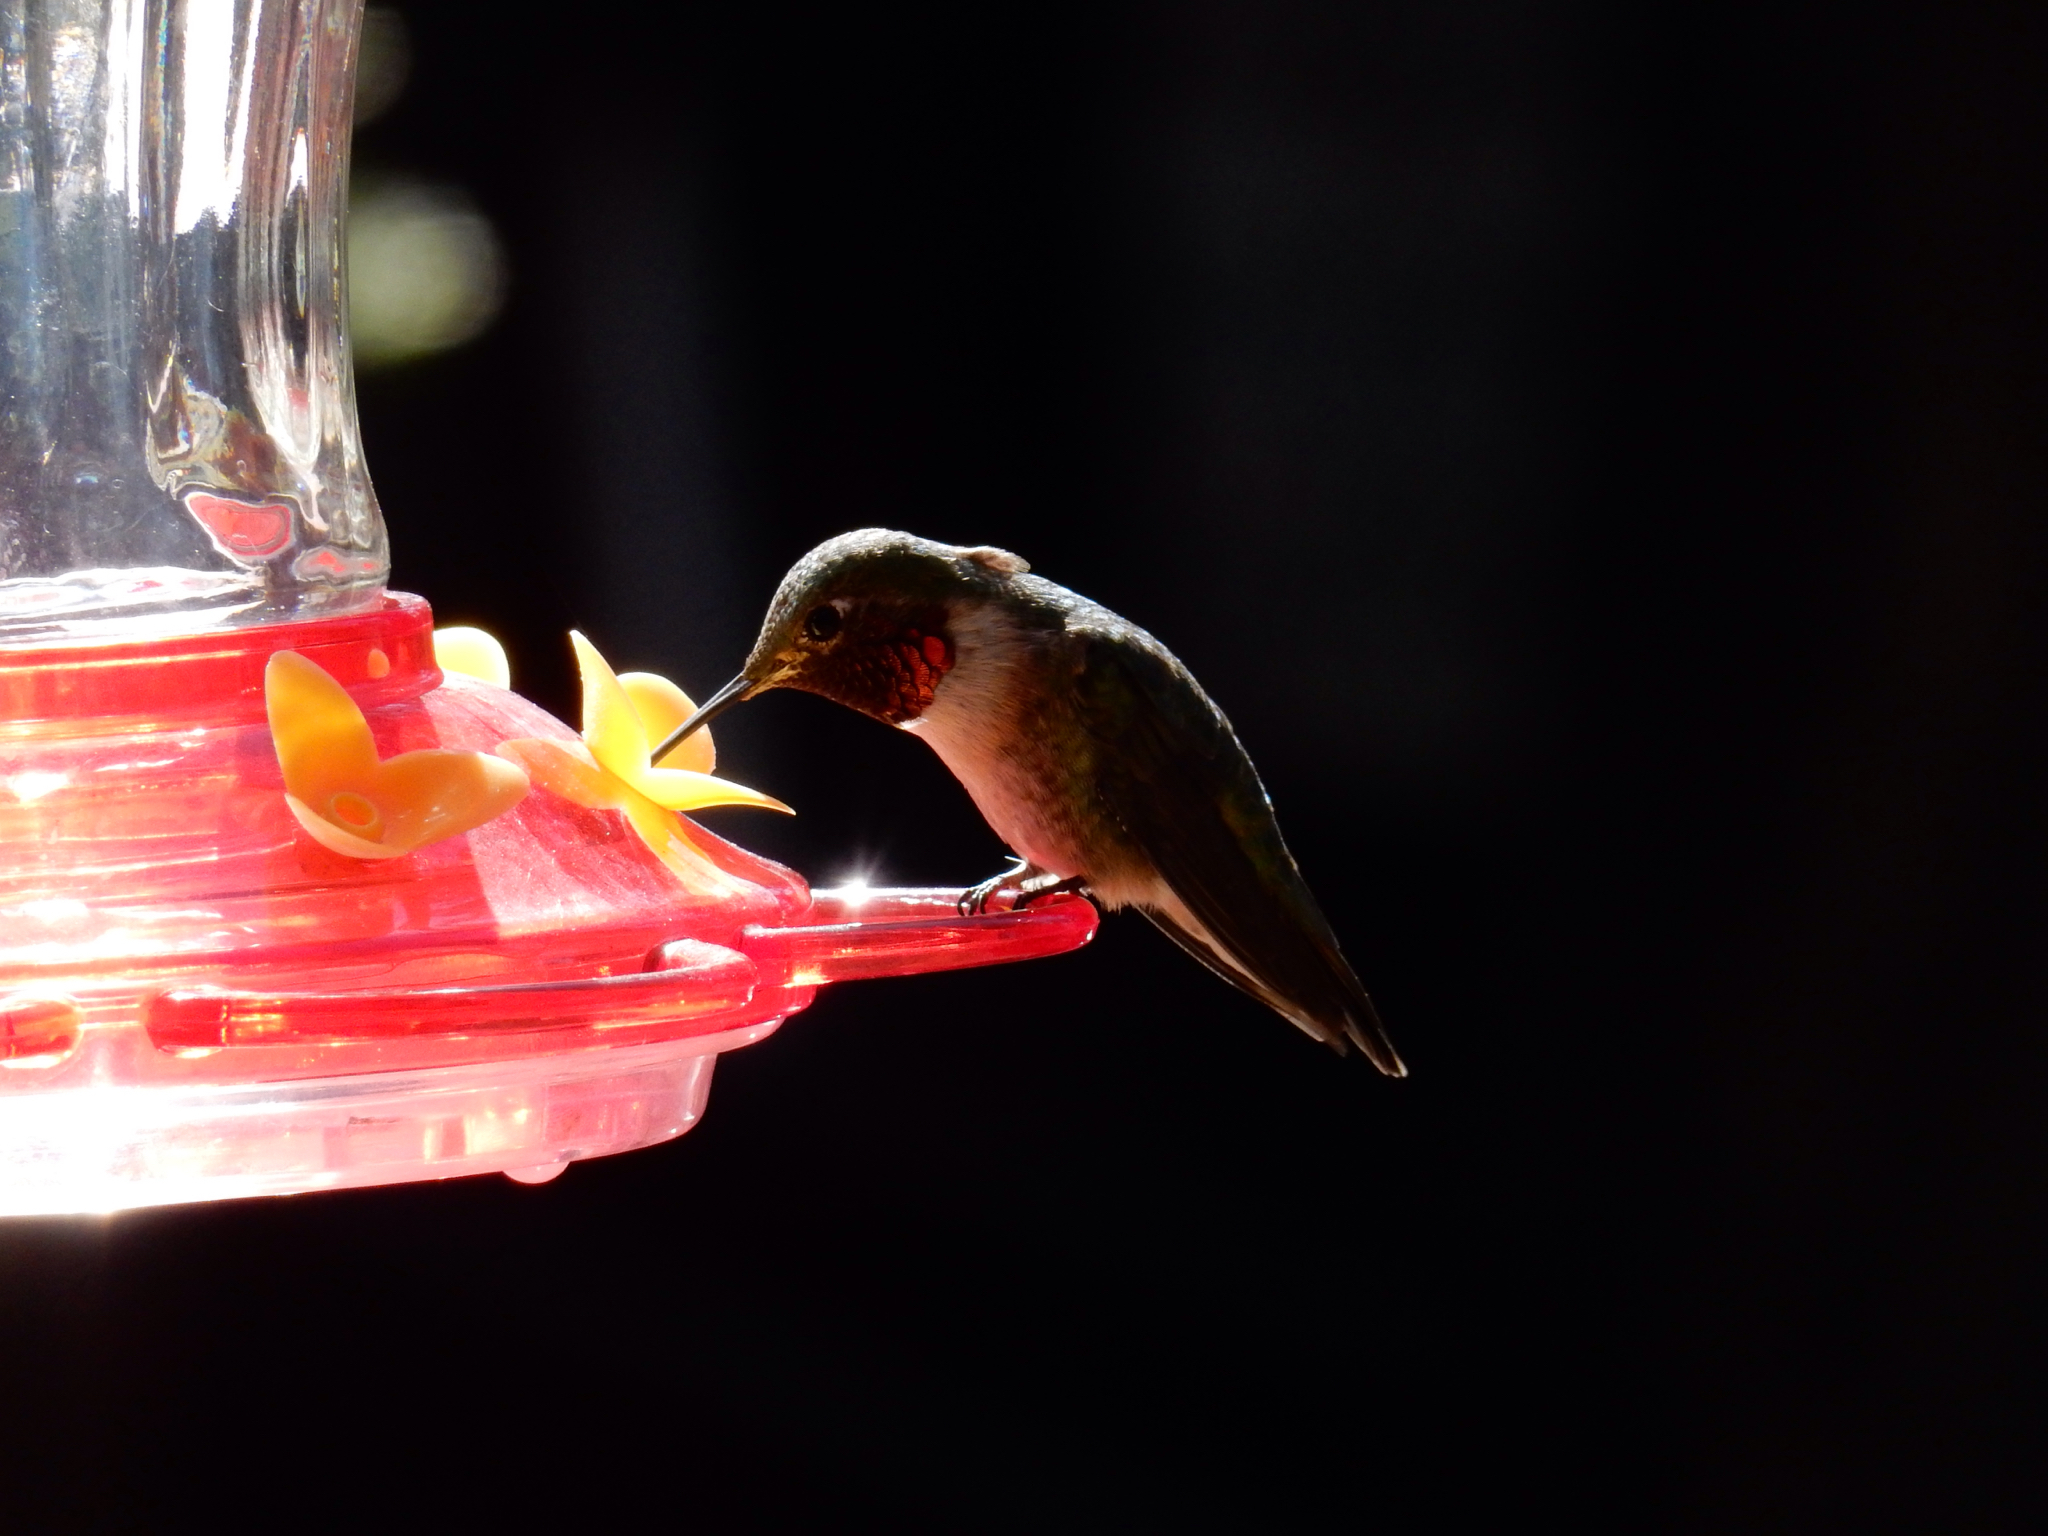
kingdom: Animalia
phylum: Chordata
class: Aves
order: Apodiformes
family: Trochilidae
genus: Selasphorus
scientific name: Selasphorus platycercus
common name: Broad-tailed hummingbird
